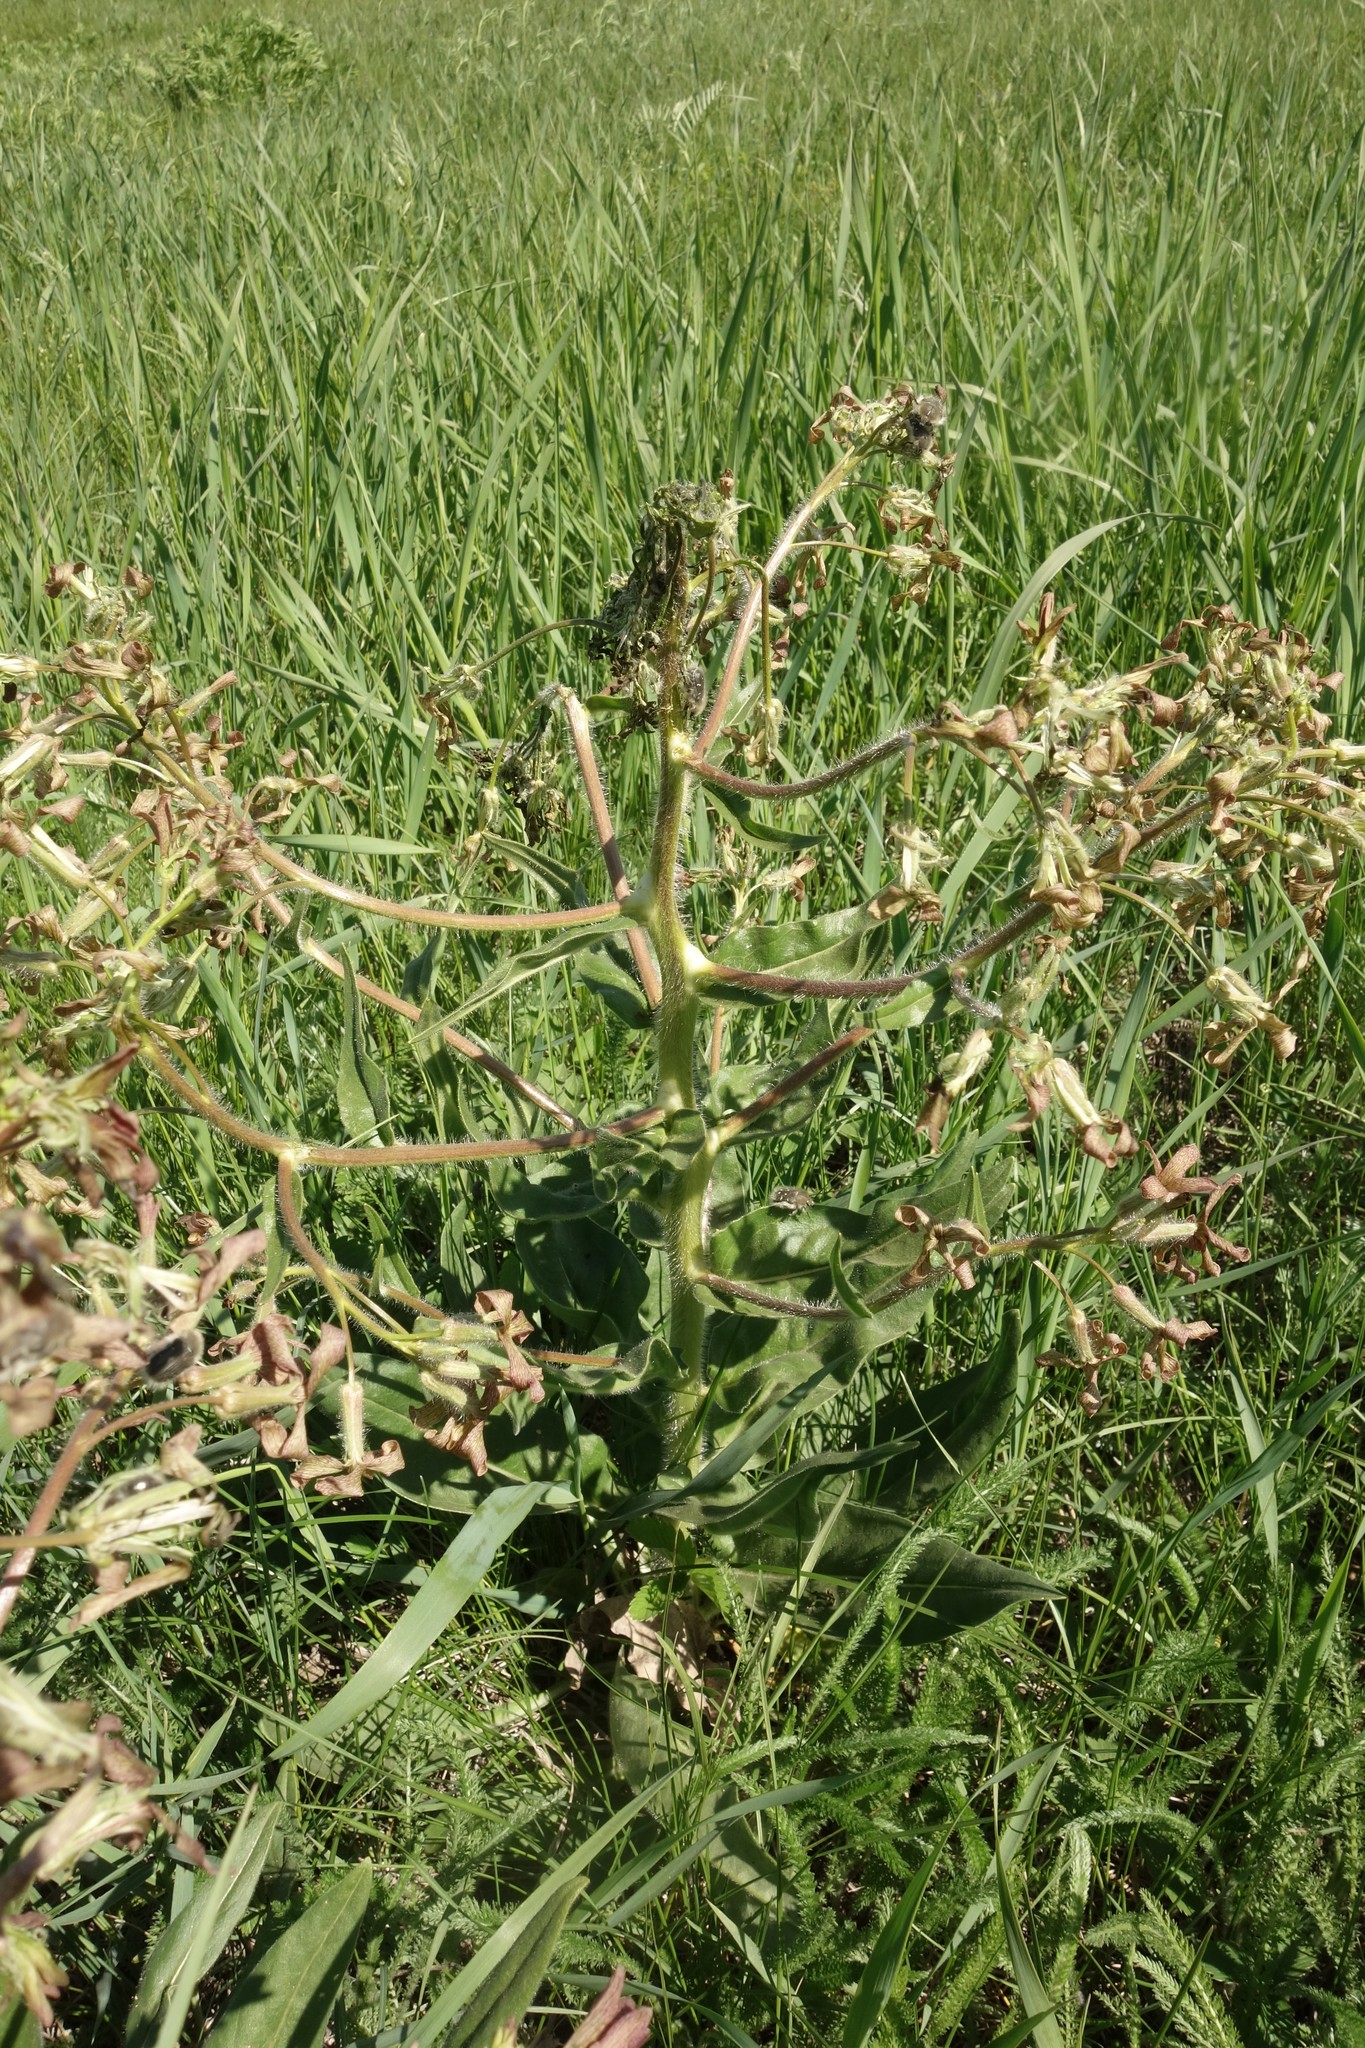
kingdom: Plantae
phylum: Tracheophyta
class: Magnoliopsida
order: Brassicales
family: Brassicaceae
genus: Hesperis
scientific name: Hesperis tristis
